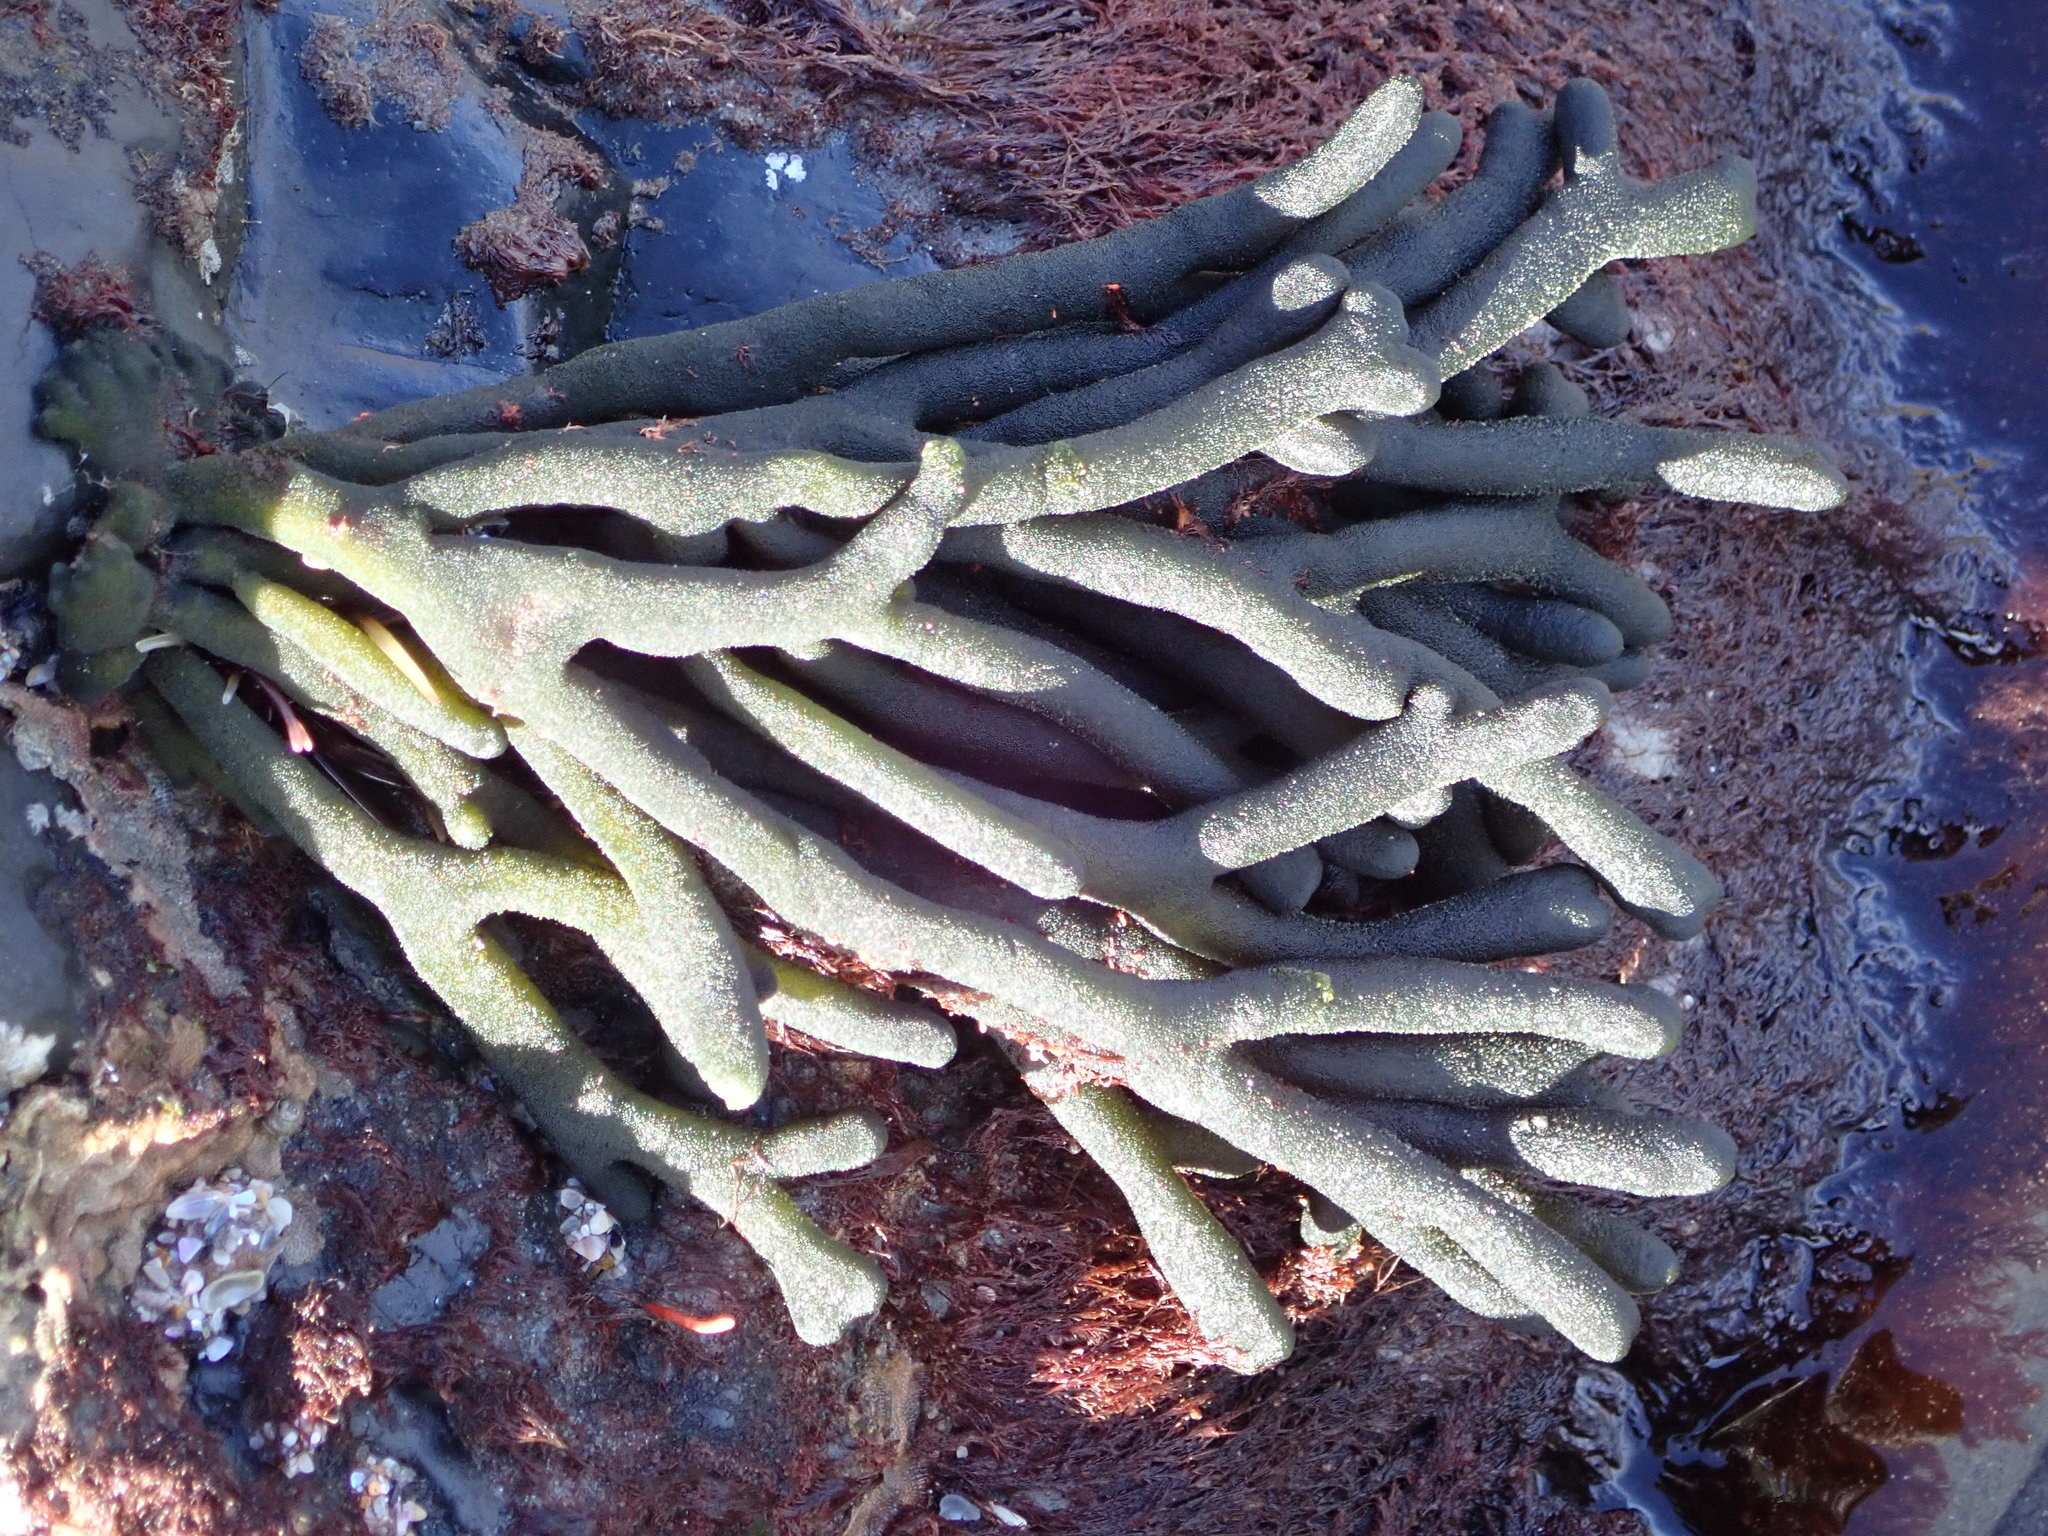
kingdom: Plantae
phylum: Chlorophyta
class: Ulvophyceae
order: Bryopsidales
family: Codiaceae
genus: Codium
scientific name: Codium fragile
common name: Dead man's fingers
